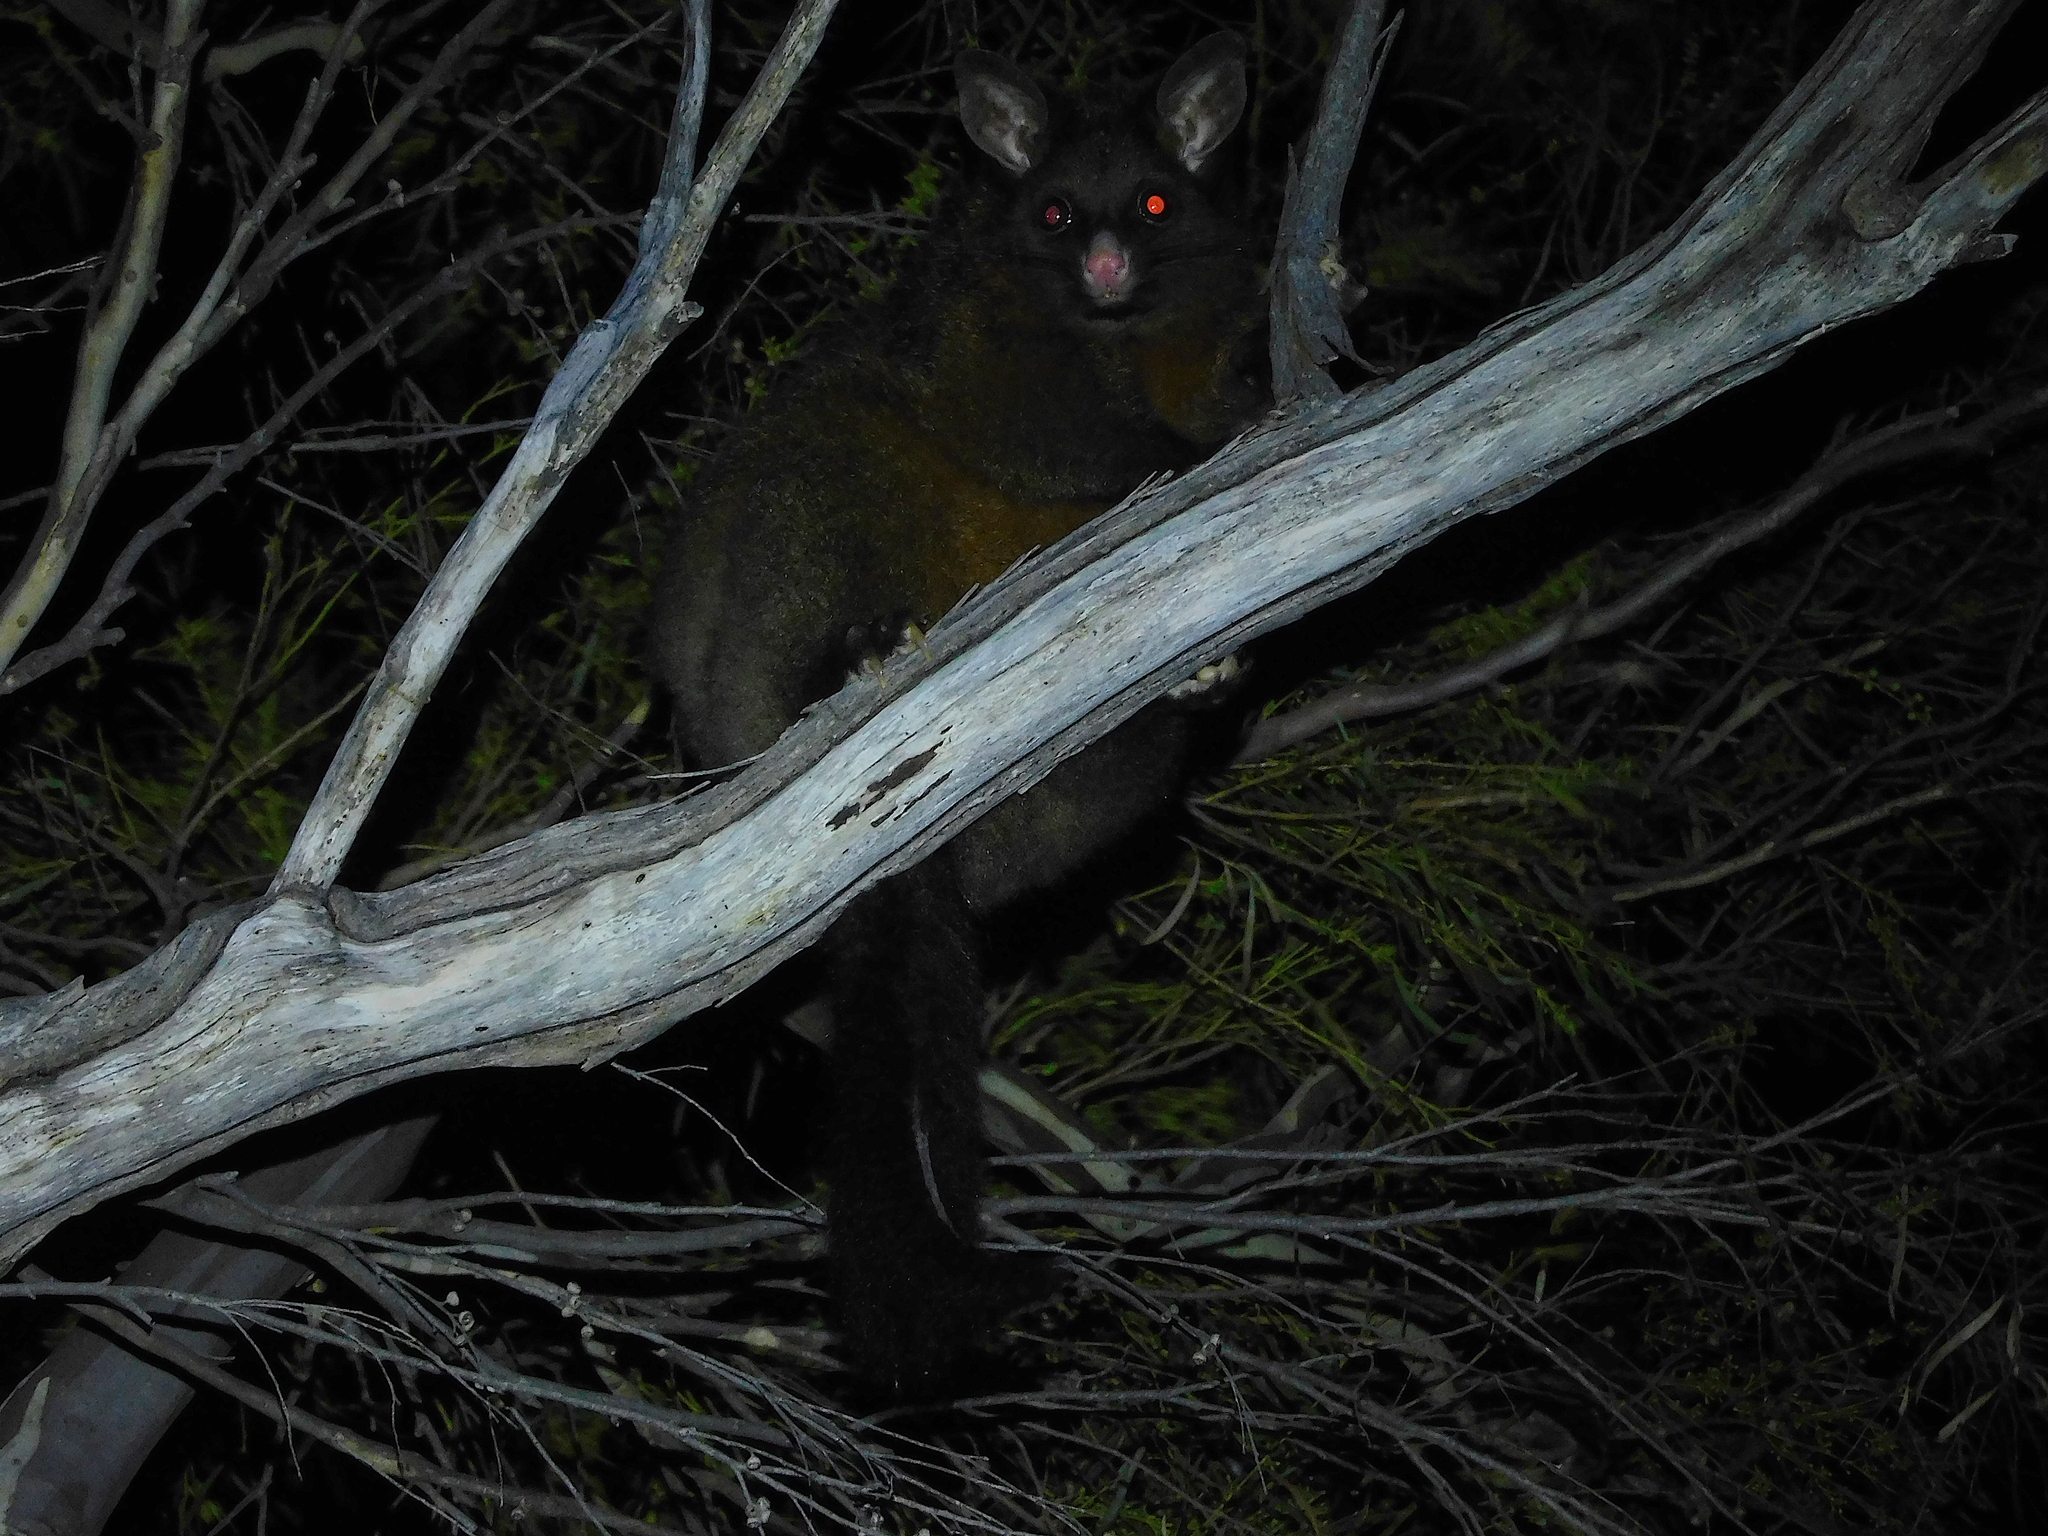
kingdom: Animalia
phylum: Chordata
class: Mammalia
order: Diprotodontia
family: Phalangeridae
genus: Trichosurus
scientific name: Trichosurus vulpecula
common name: Common brushtail
